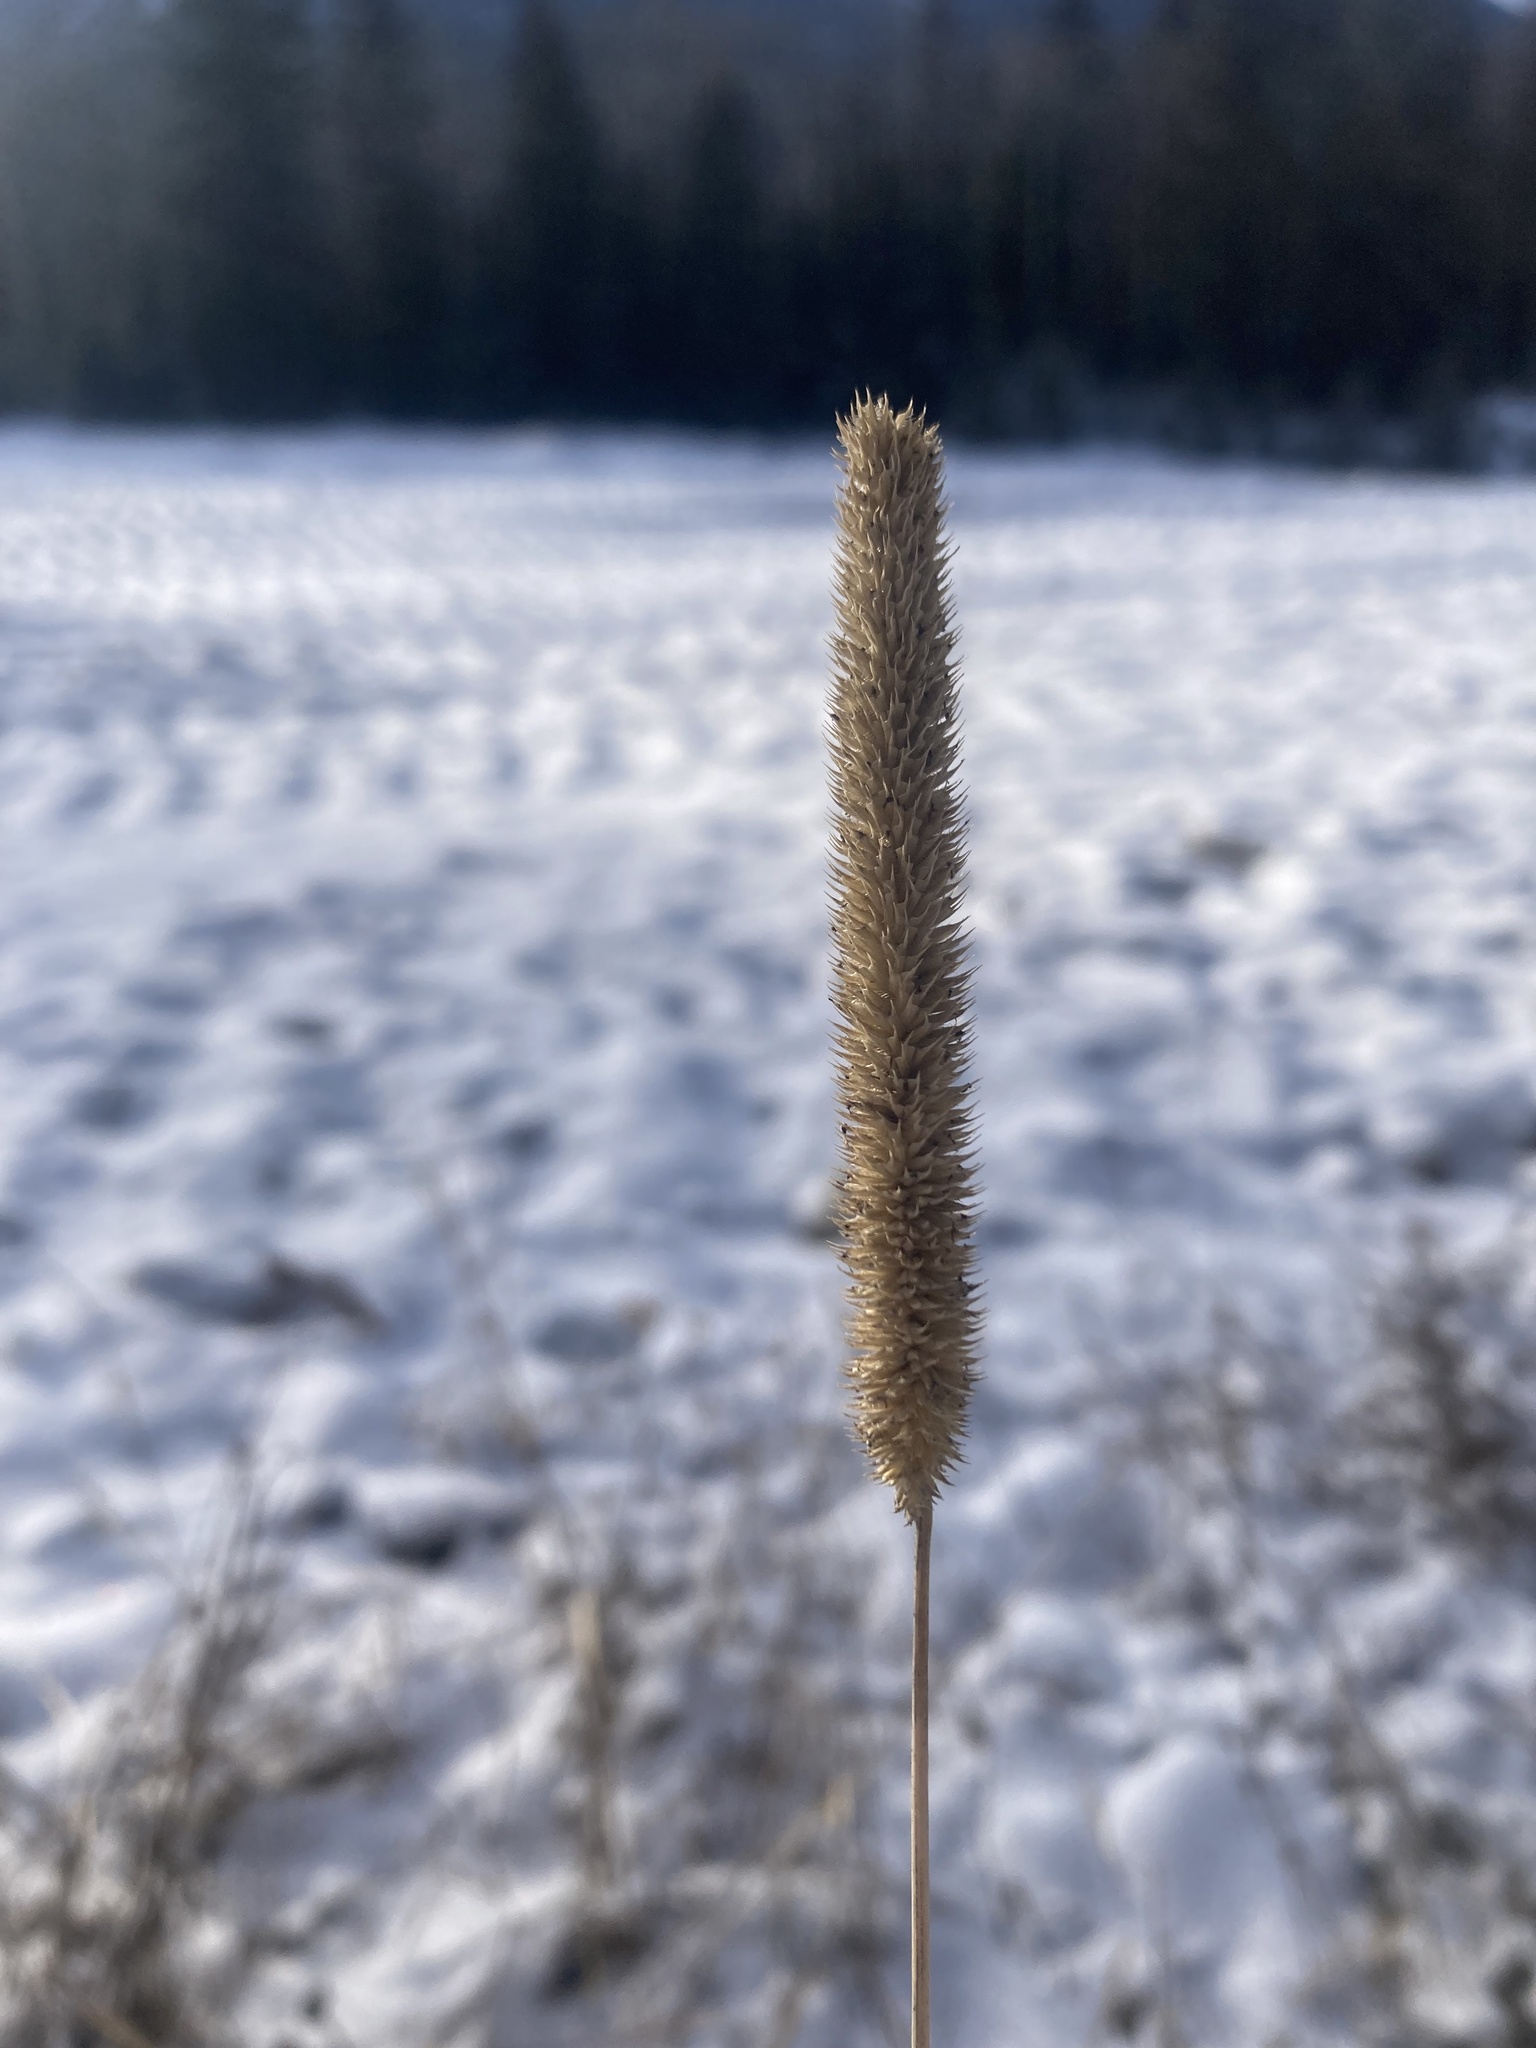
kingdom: Plantae
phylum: Tracheophyta
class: Liliopsida
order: Poales
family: Poaceae
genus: Phleum
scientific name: Phleum pratense
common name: Timothy grass
